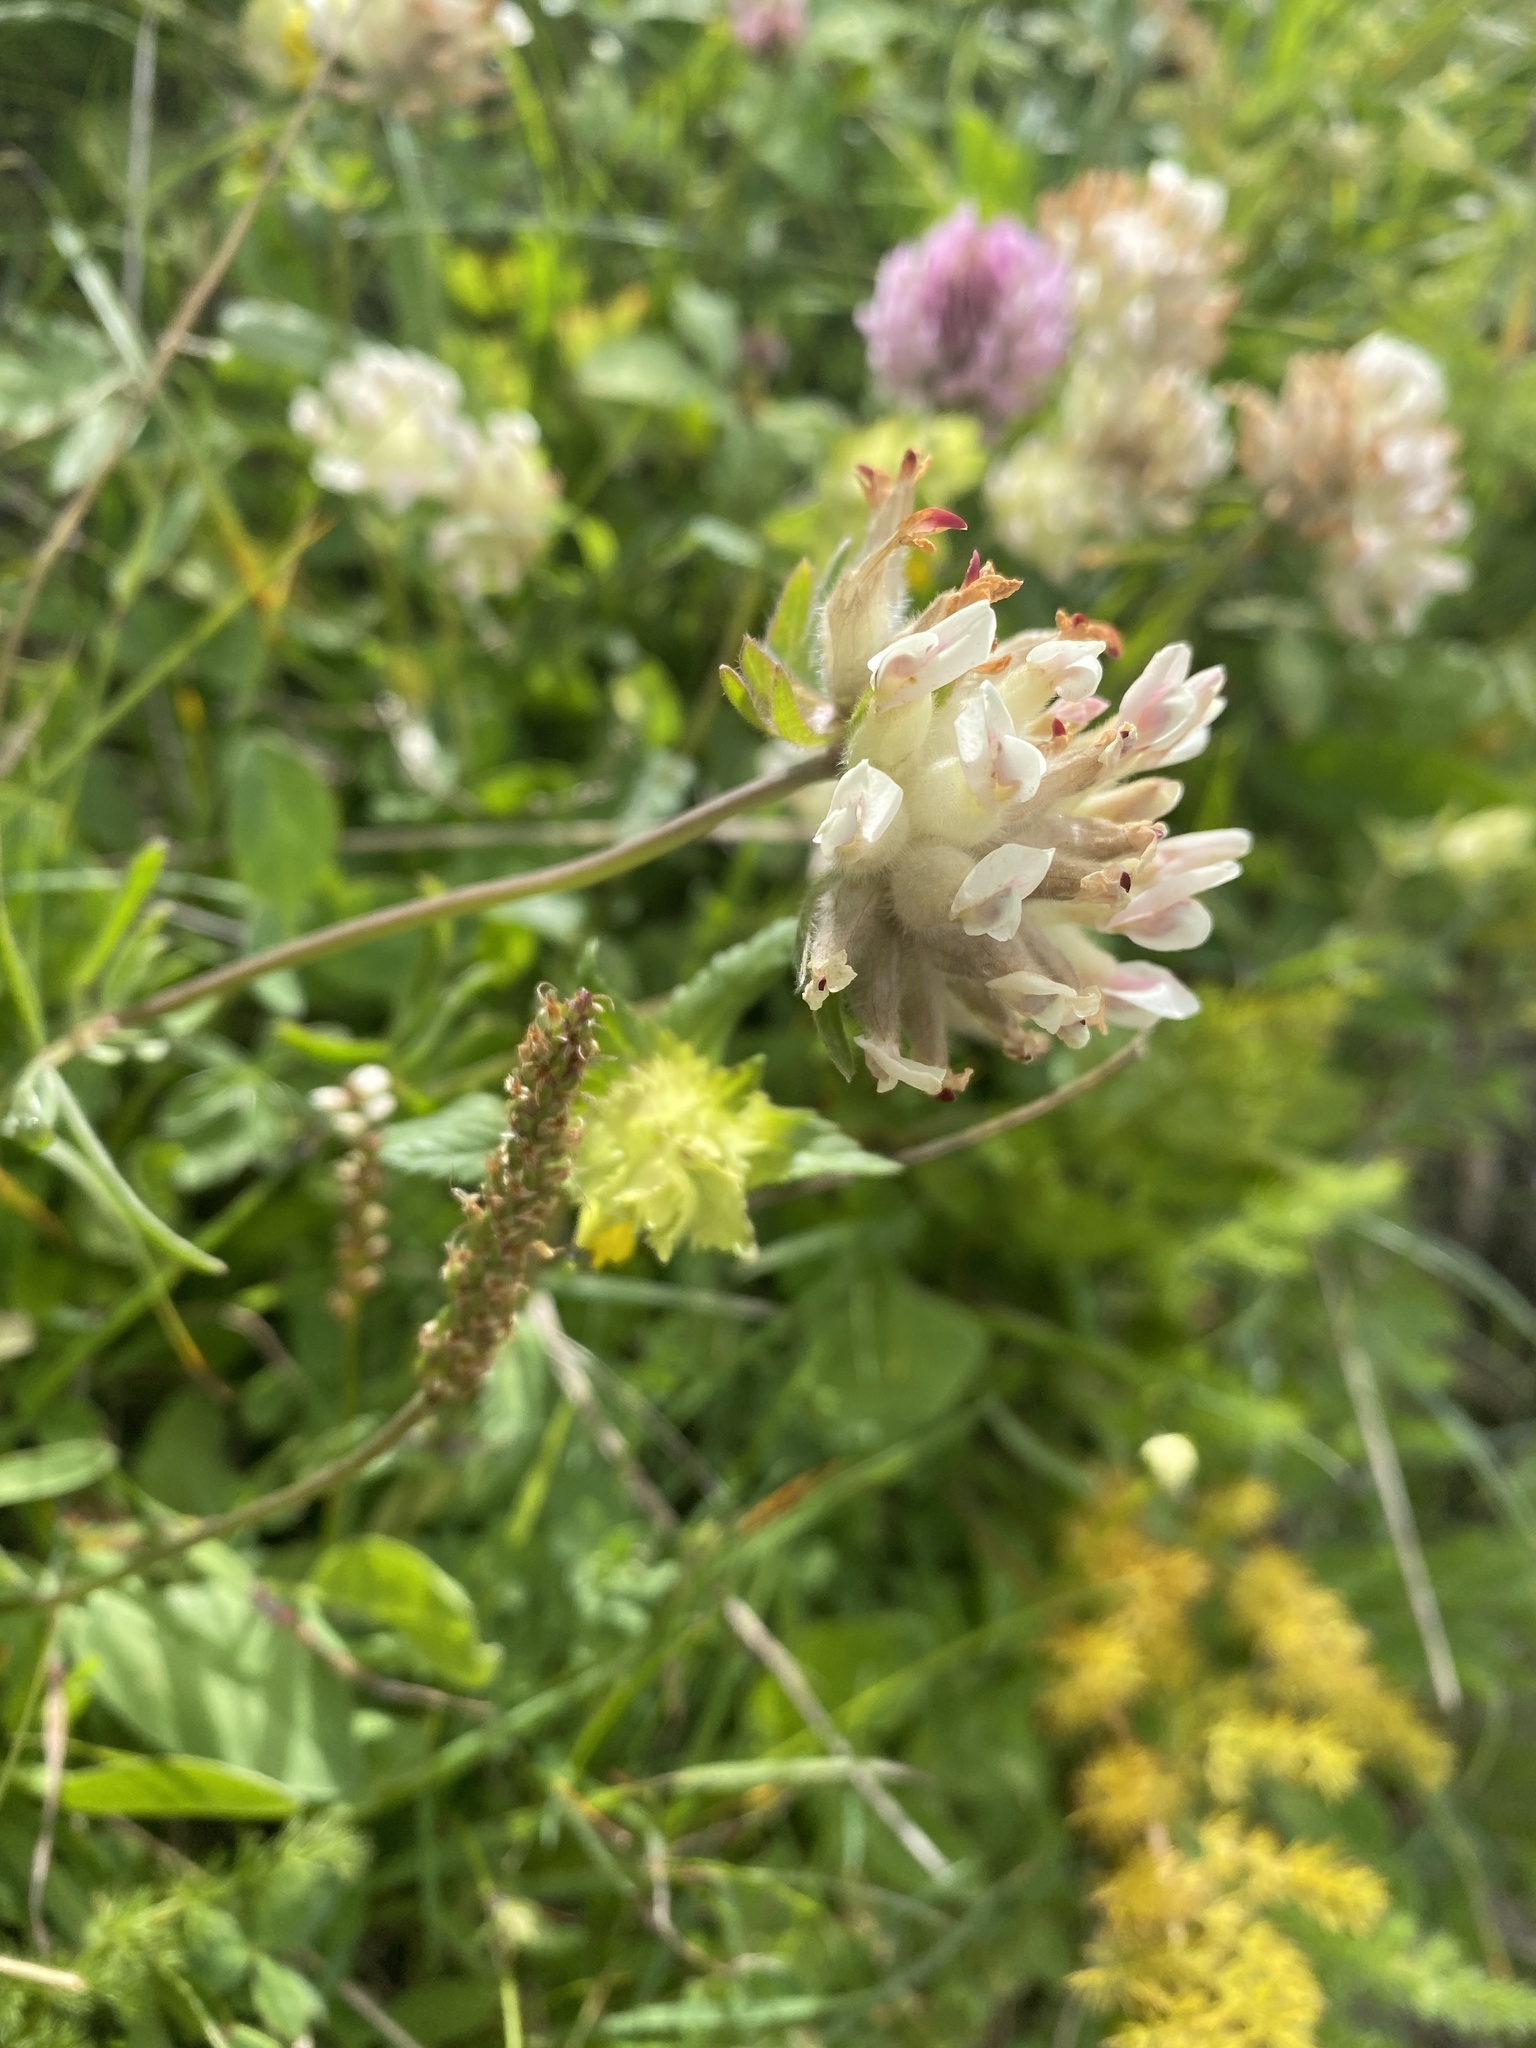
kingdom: Plantae
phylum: Tracheophyta
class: Magnoliopsida
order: Fabales
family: Fabaceae
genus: Anthyllis
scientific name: Anthyllis vulneraria
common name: Kidney vetch
